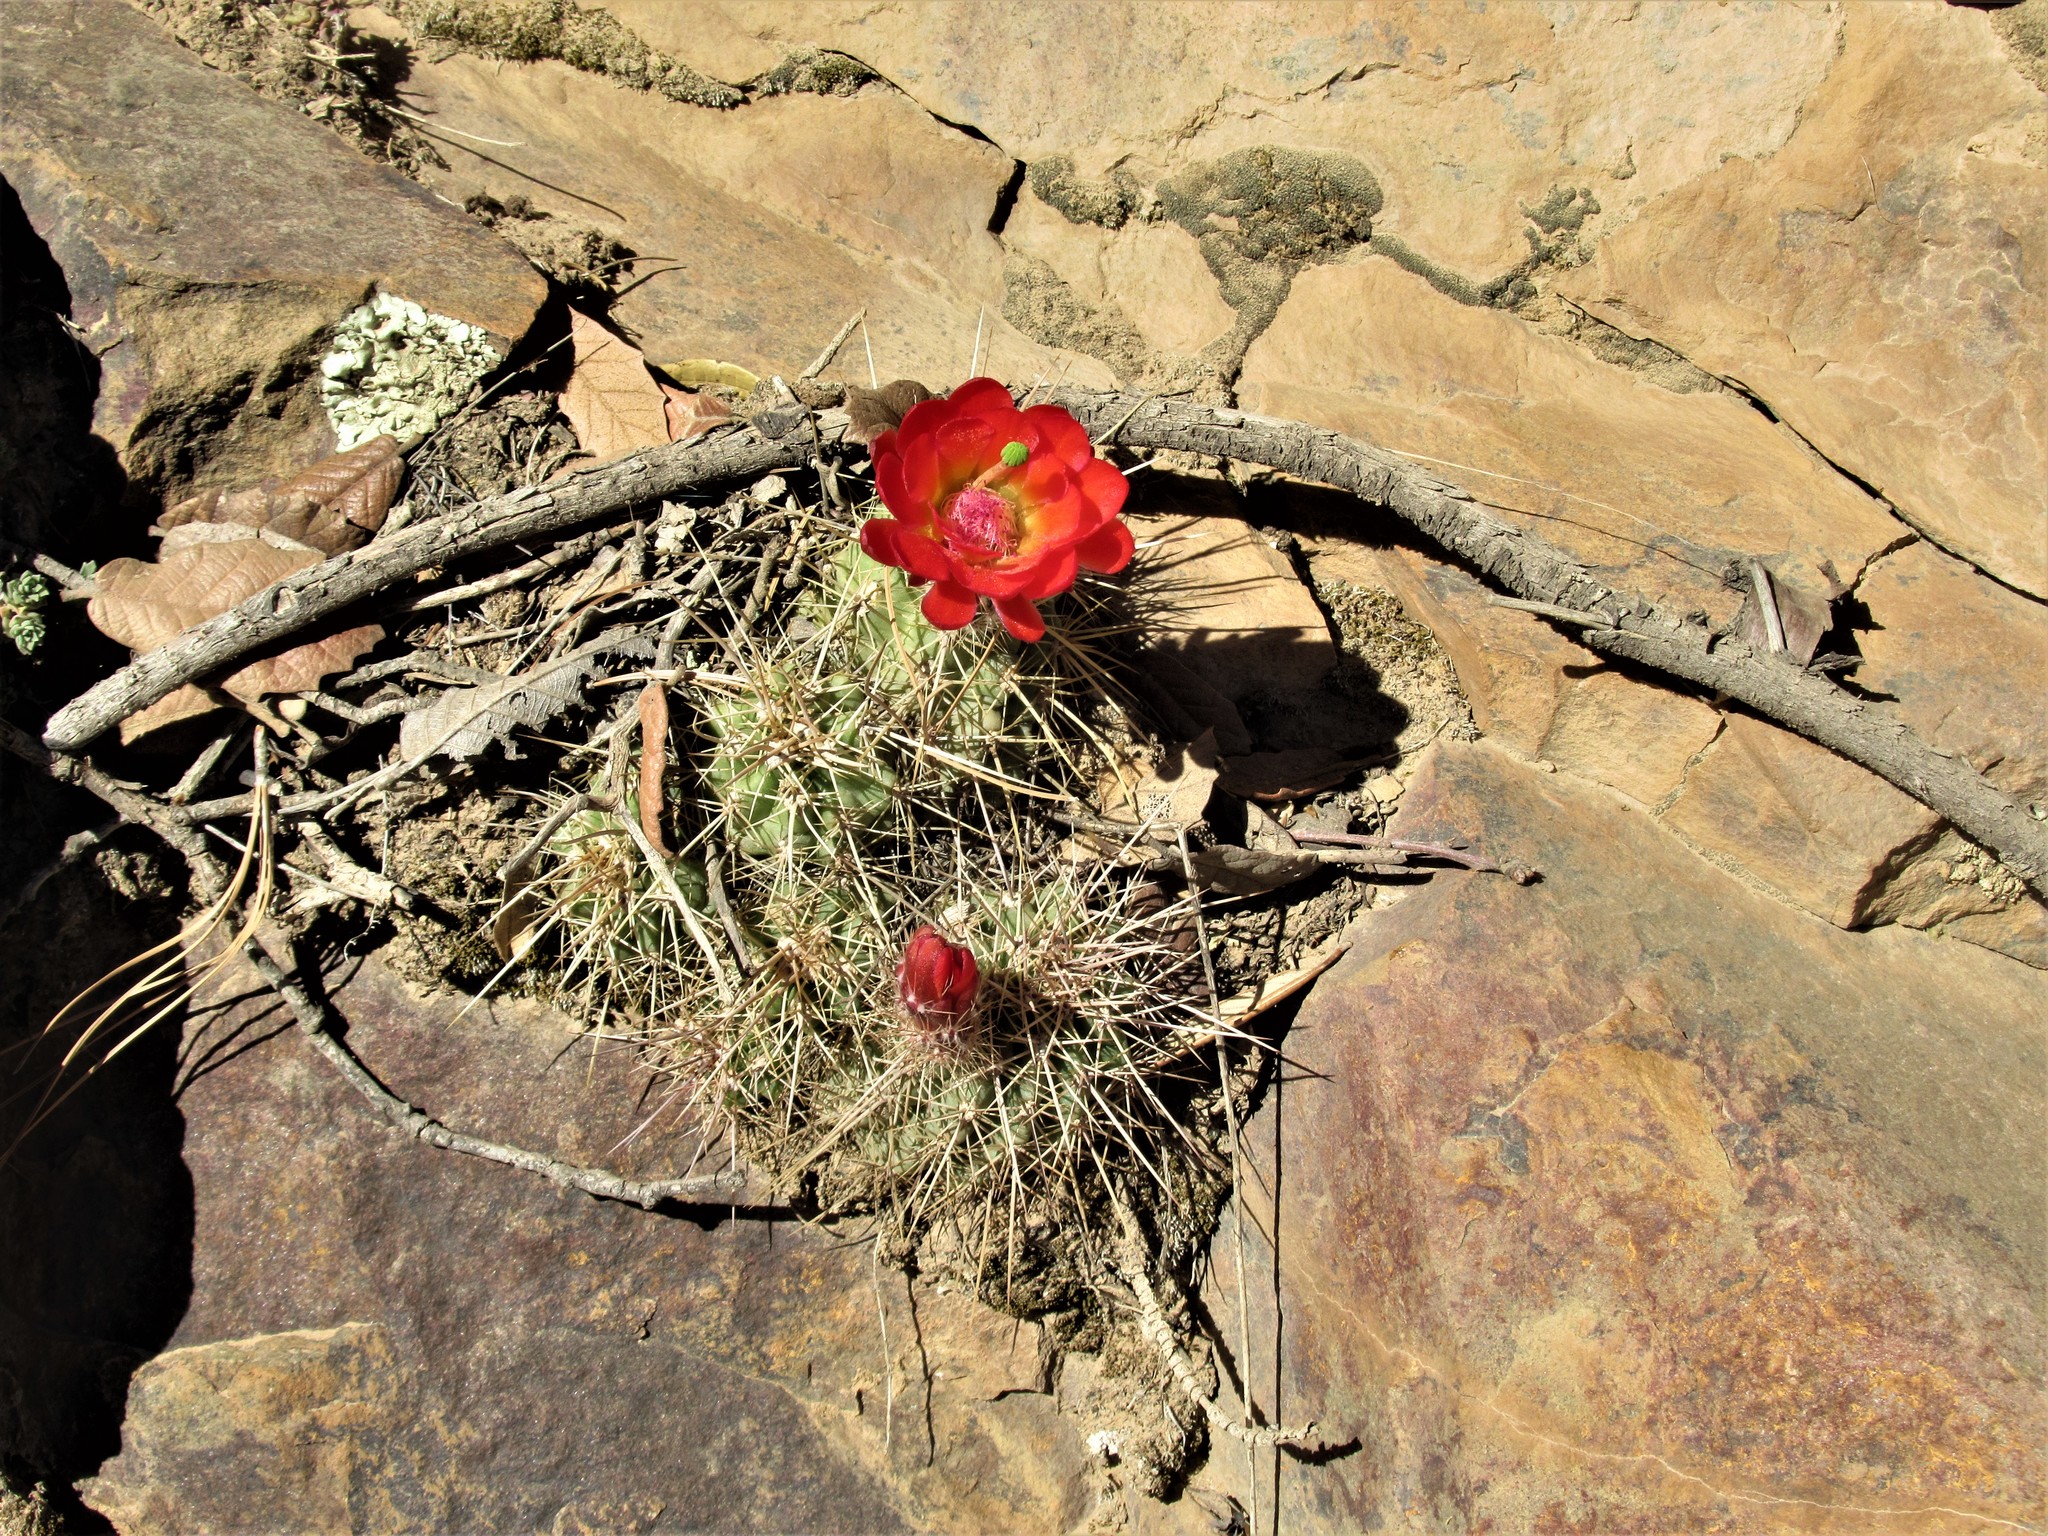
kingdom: Plantae
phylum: Tracheophyta
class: Magnoliopsida
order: Caryophyllales
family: Cactaceae
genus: Echinocereus
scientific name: Echinocereus coccineus
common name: Scarlet hedgehog cactus
